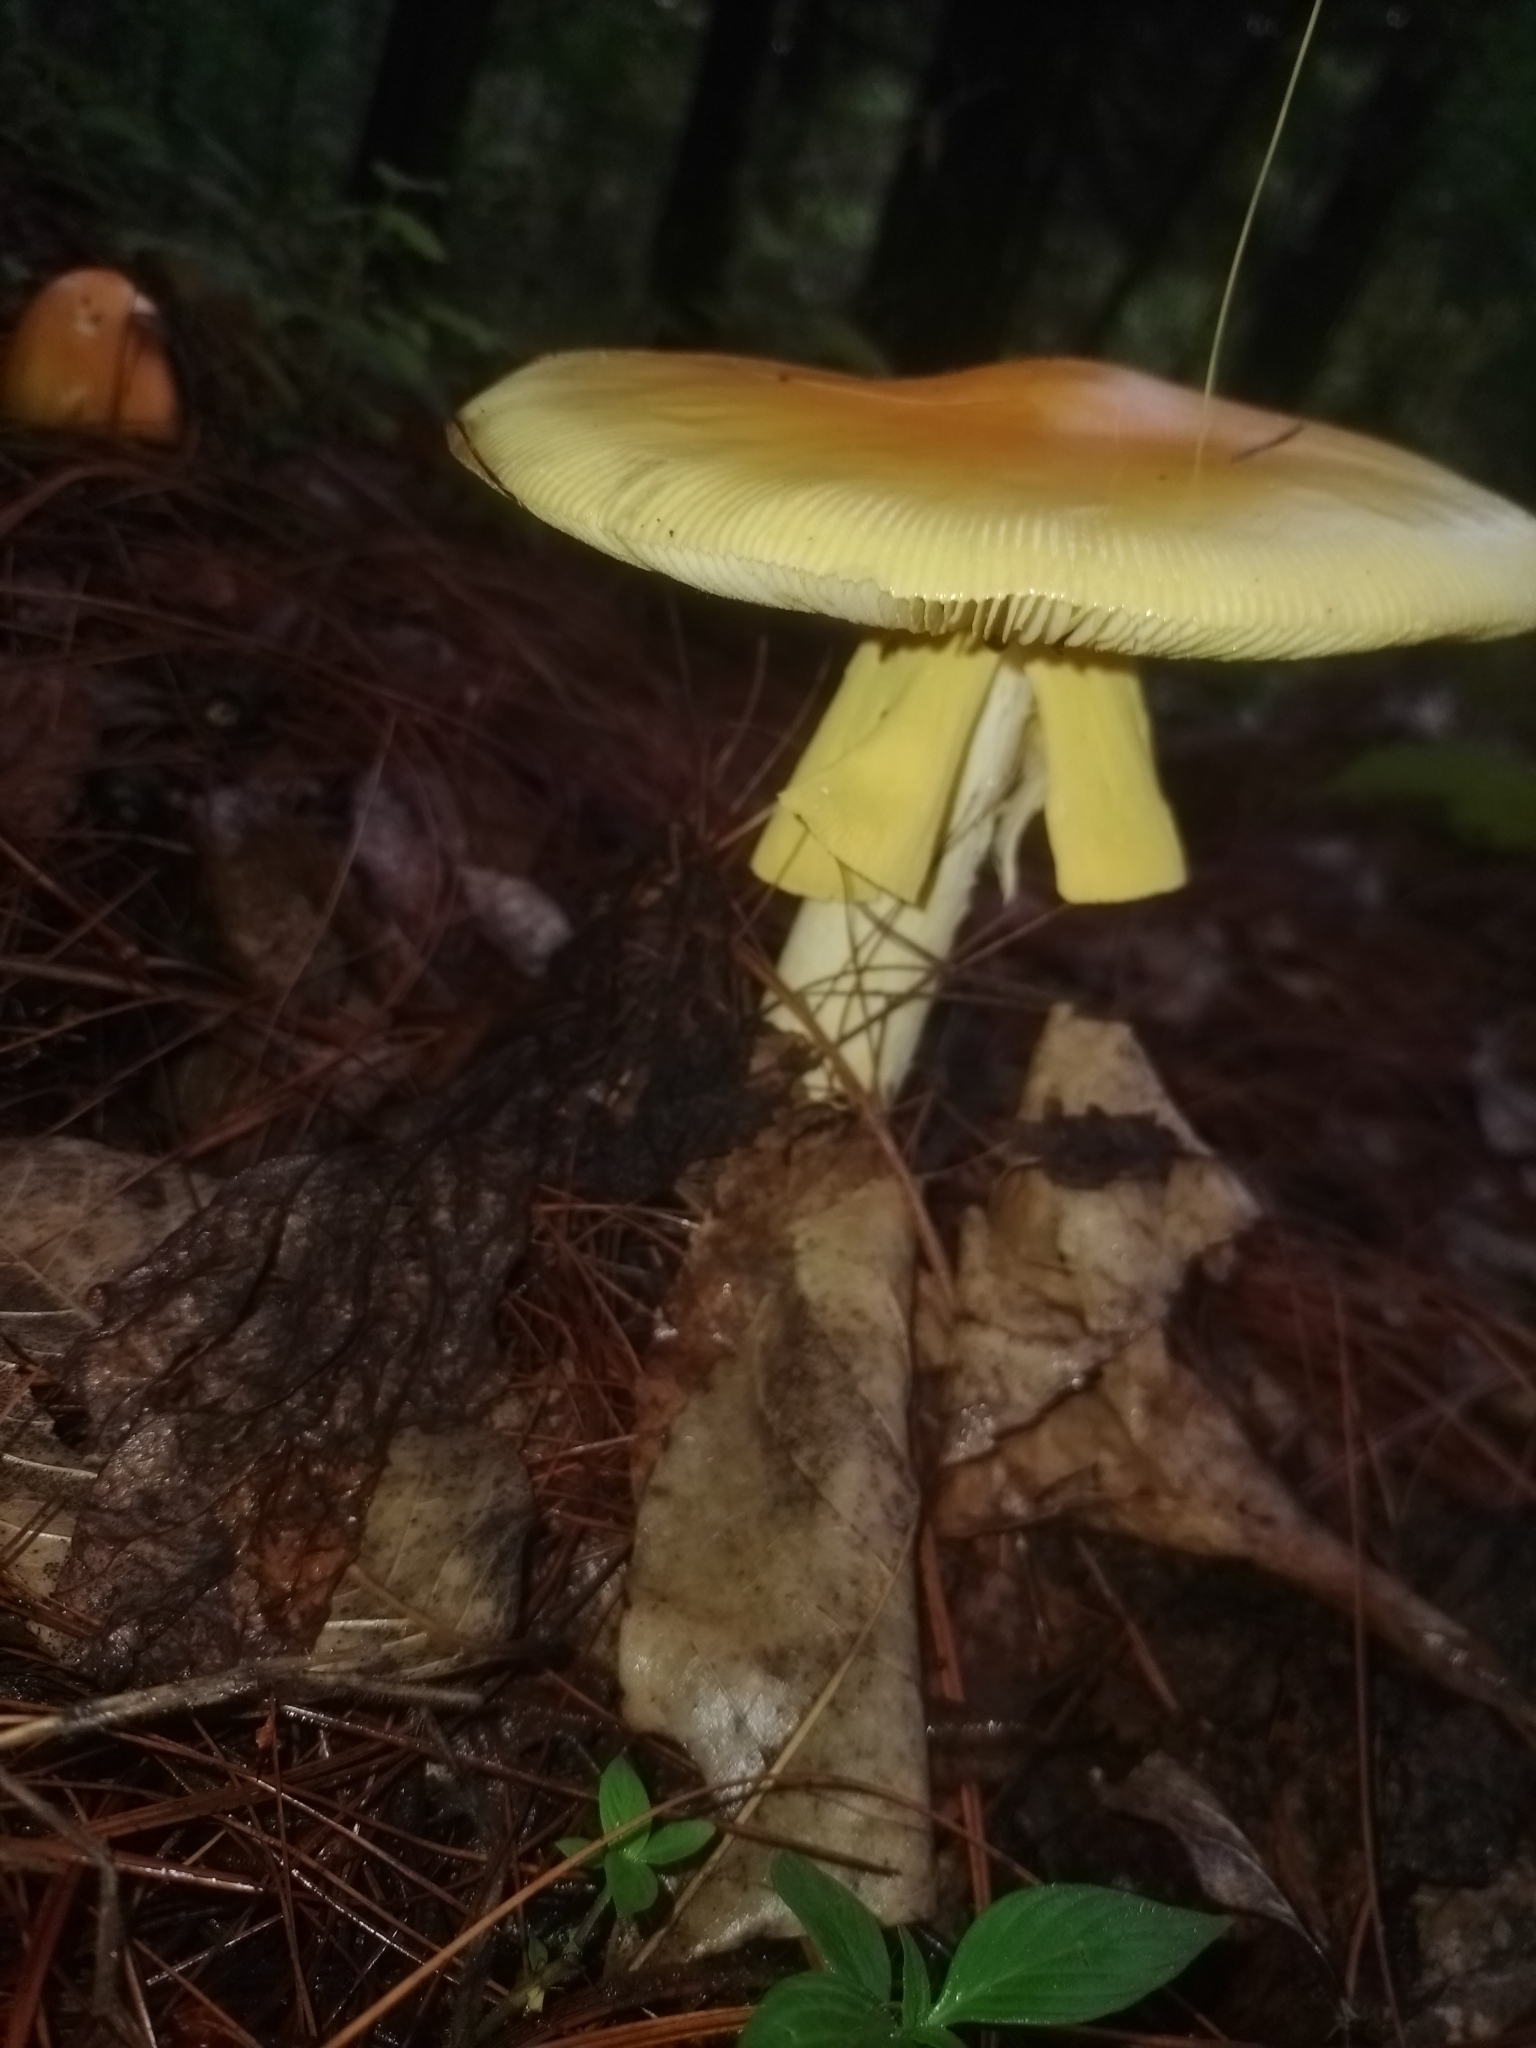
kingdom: Fungi
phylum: Basidiomycota
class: Agaricomycetes
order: Agaricales
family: Amanitaceae
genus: Amanita
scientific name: Amanita basii
